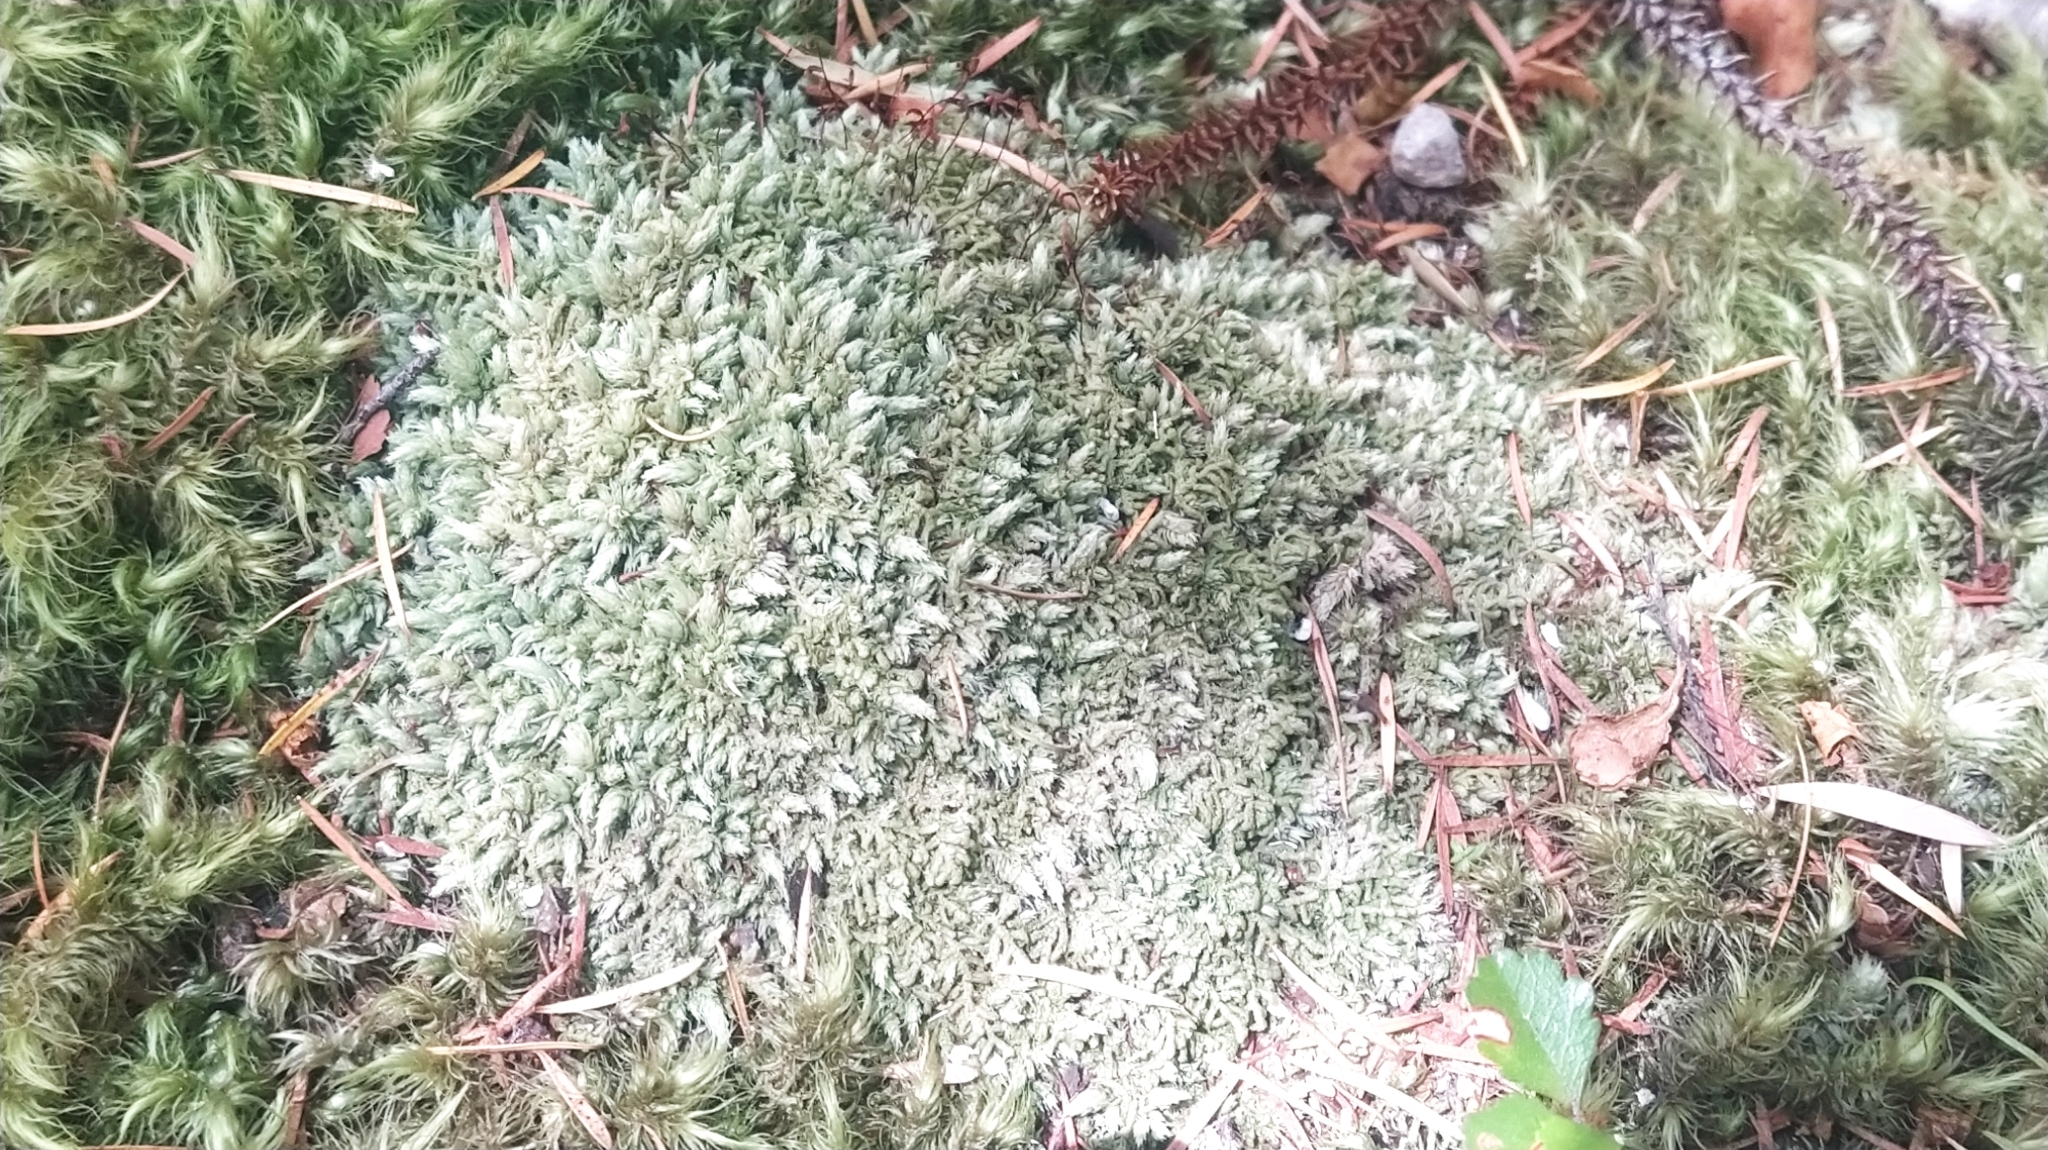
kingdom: Plantae
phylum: Bryophyta
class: Bryopsida
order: Dicranales
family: Leucobryaceae
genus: Leucobryum
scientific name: Leucobryum javense
